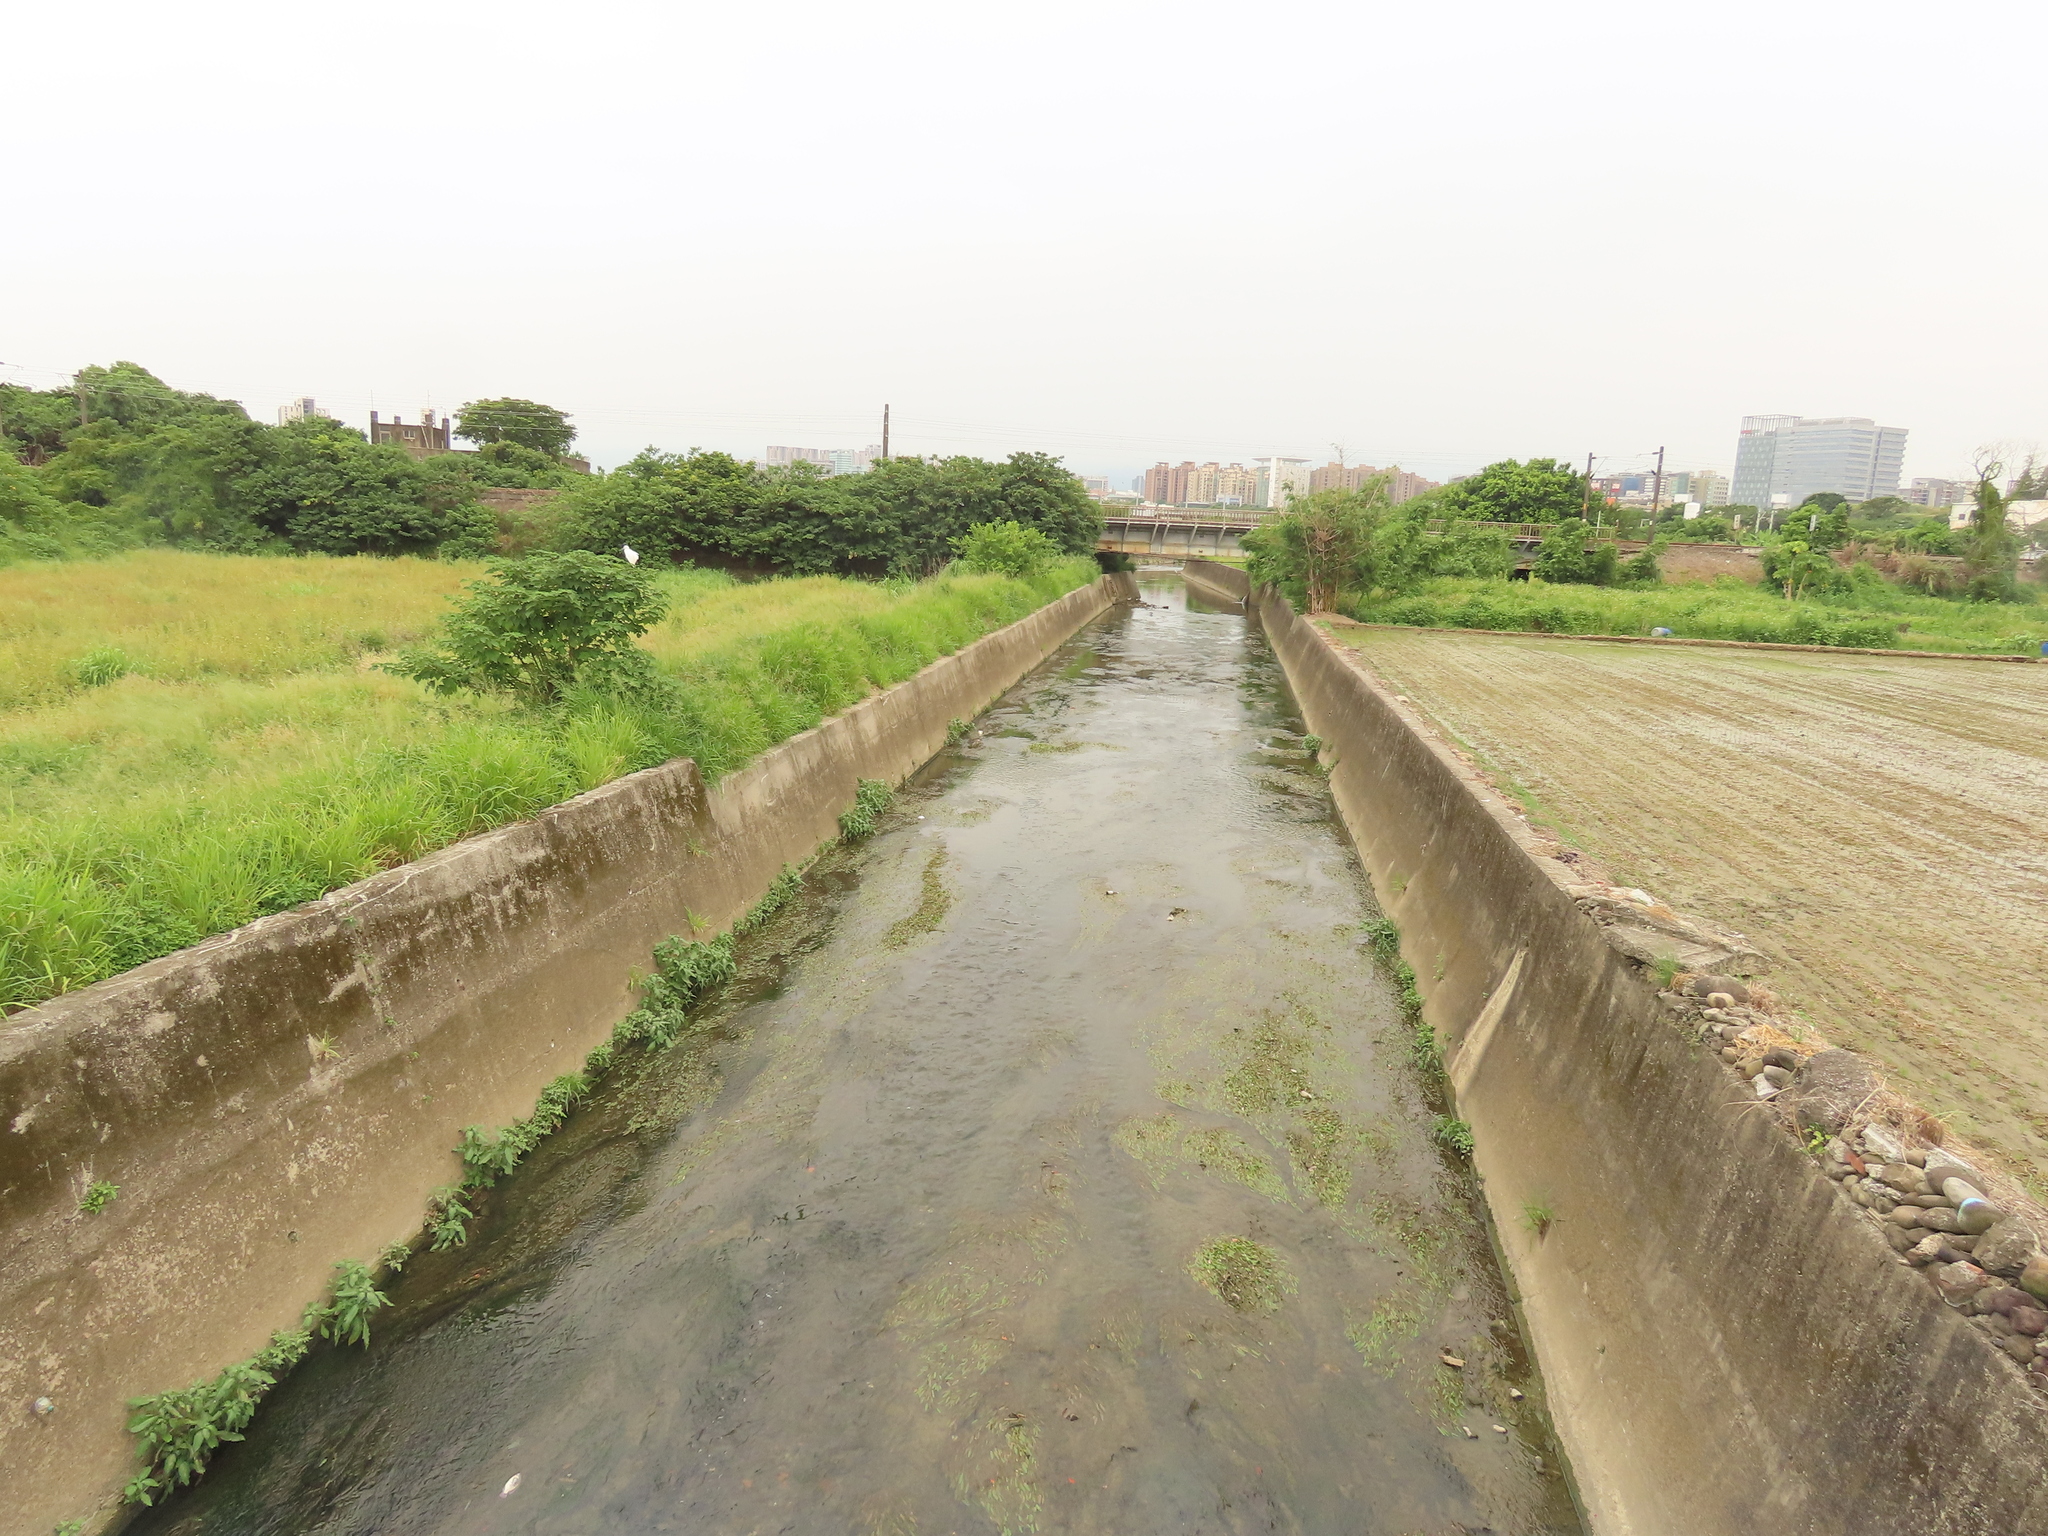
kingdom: Plantae
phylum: Tracheophyta
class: Liliopsida
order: Alismatales
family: Potamogetonaceae
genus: Potamogeton
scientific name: Potamogeton wrightii
